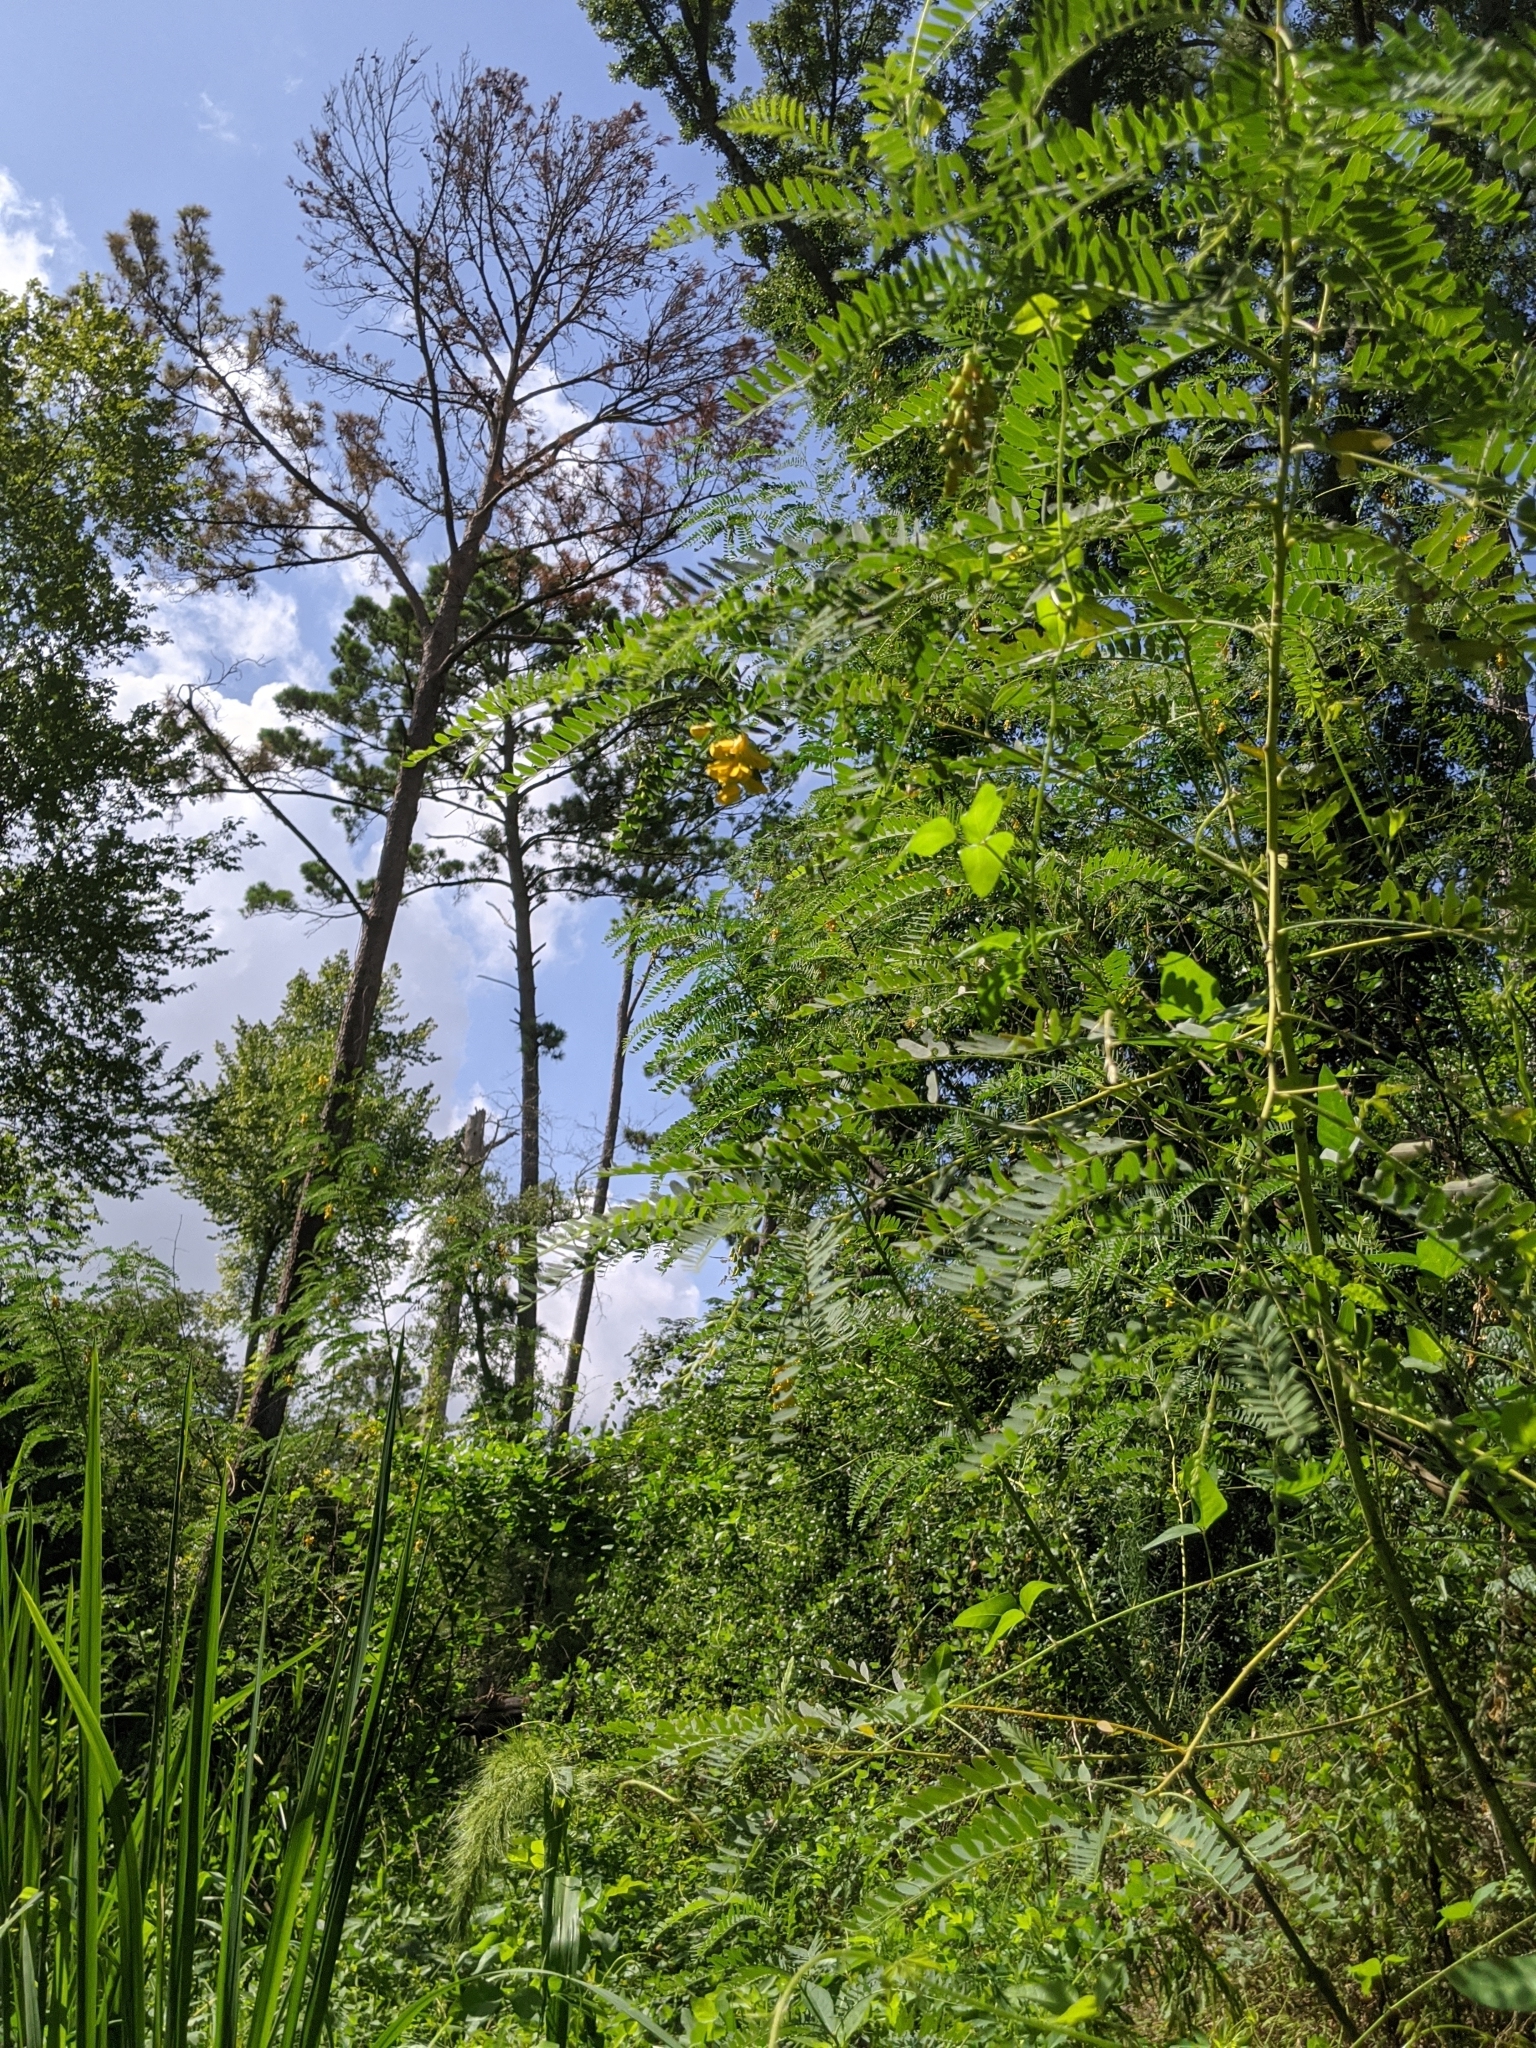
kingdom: Plantae
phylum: Tracheophyta
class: Magnoliopsida
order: Fabales
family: Fabaceae
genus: Sesbania
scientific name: Sesbania drummondii
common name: Poison-bean
